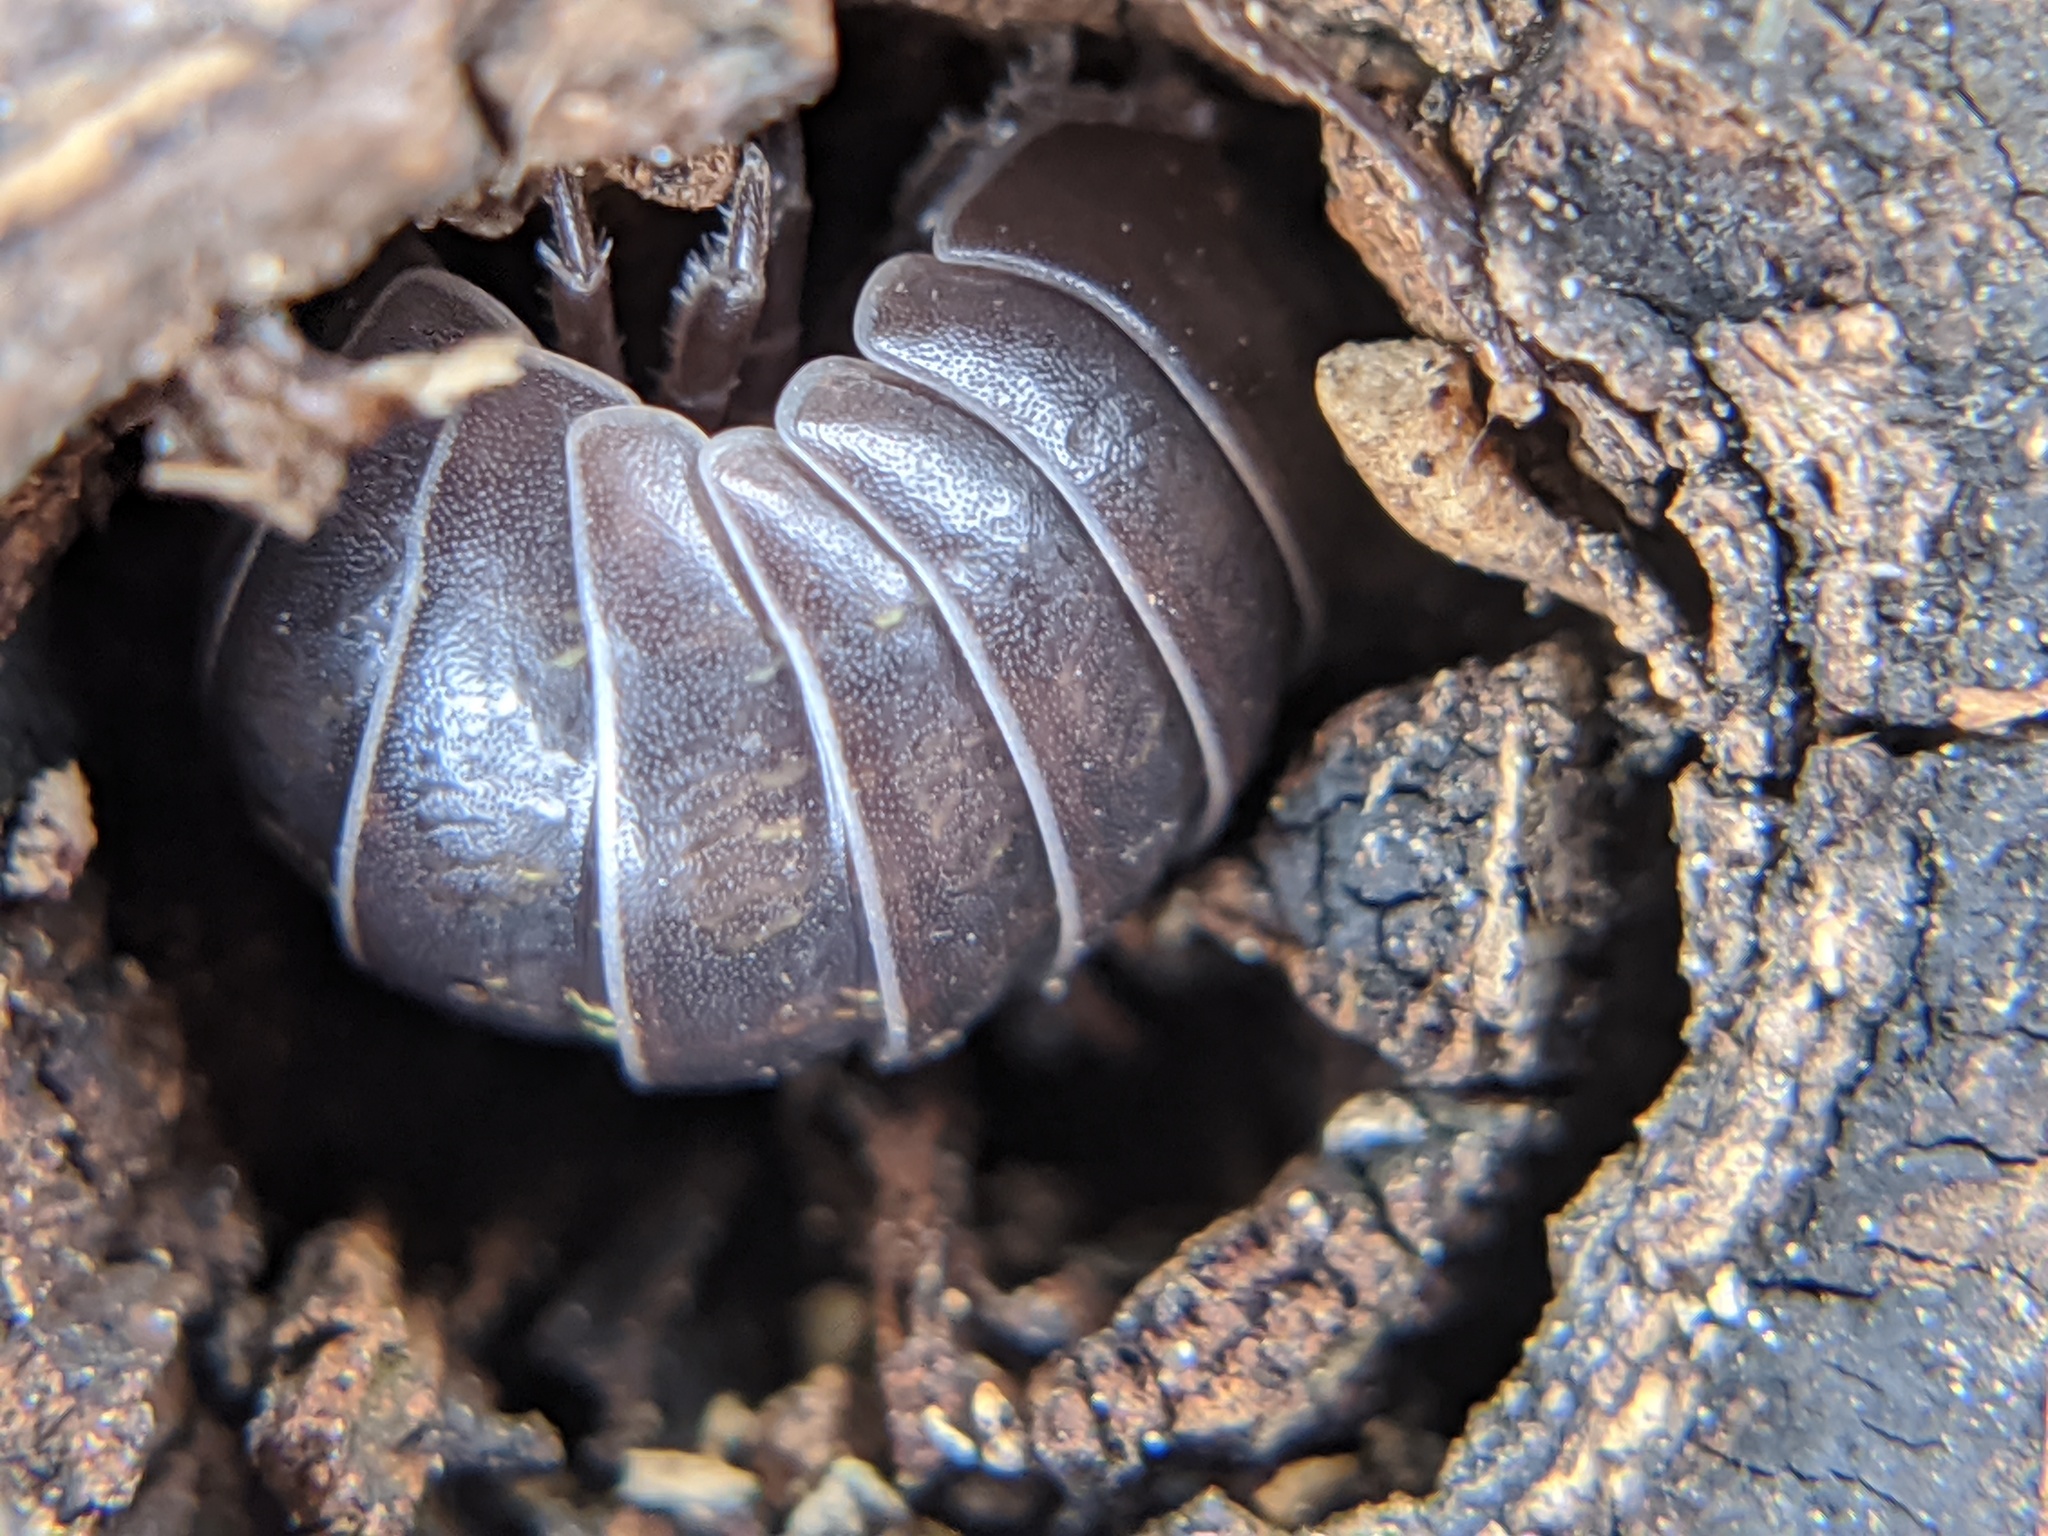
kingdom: Animalia
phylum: Arthropoda
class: Malacostraca
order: Isopoda
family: Armadillidiidae
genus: Armadillidium
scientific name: Armadillidium vulgare
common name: Common pill woodlouse
